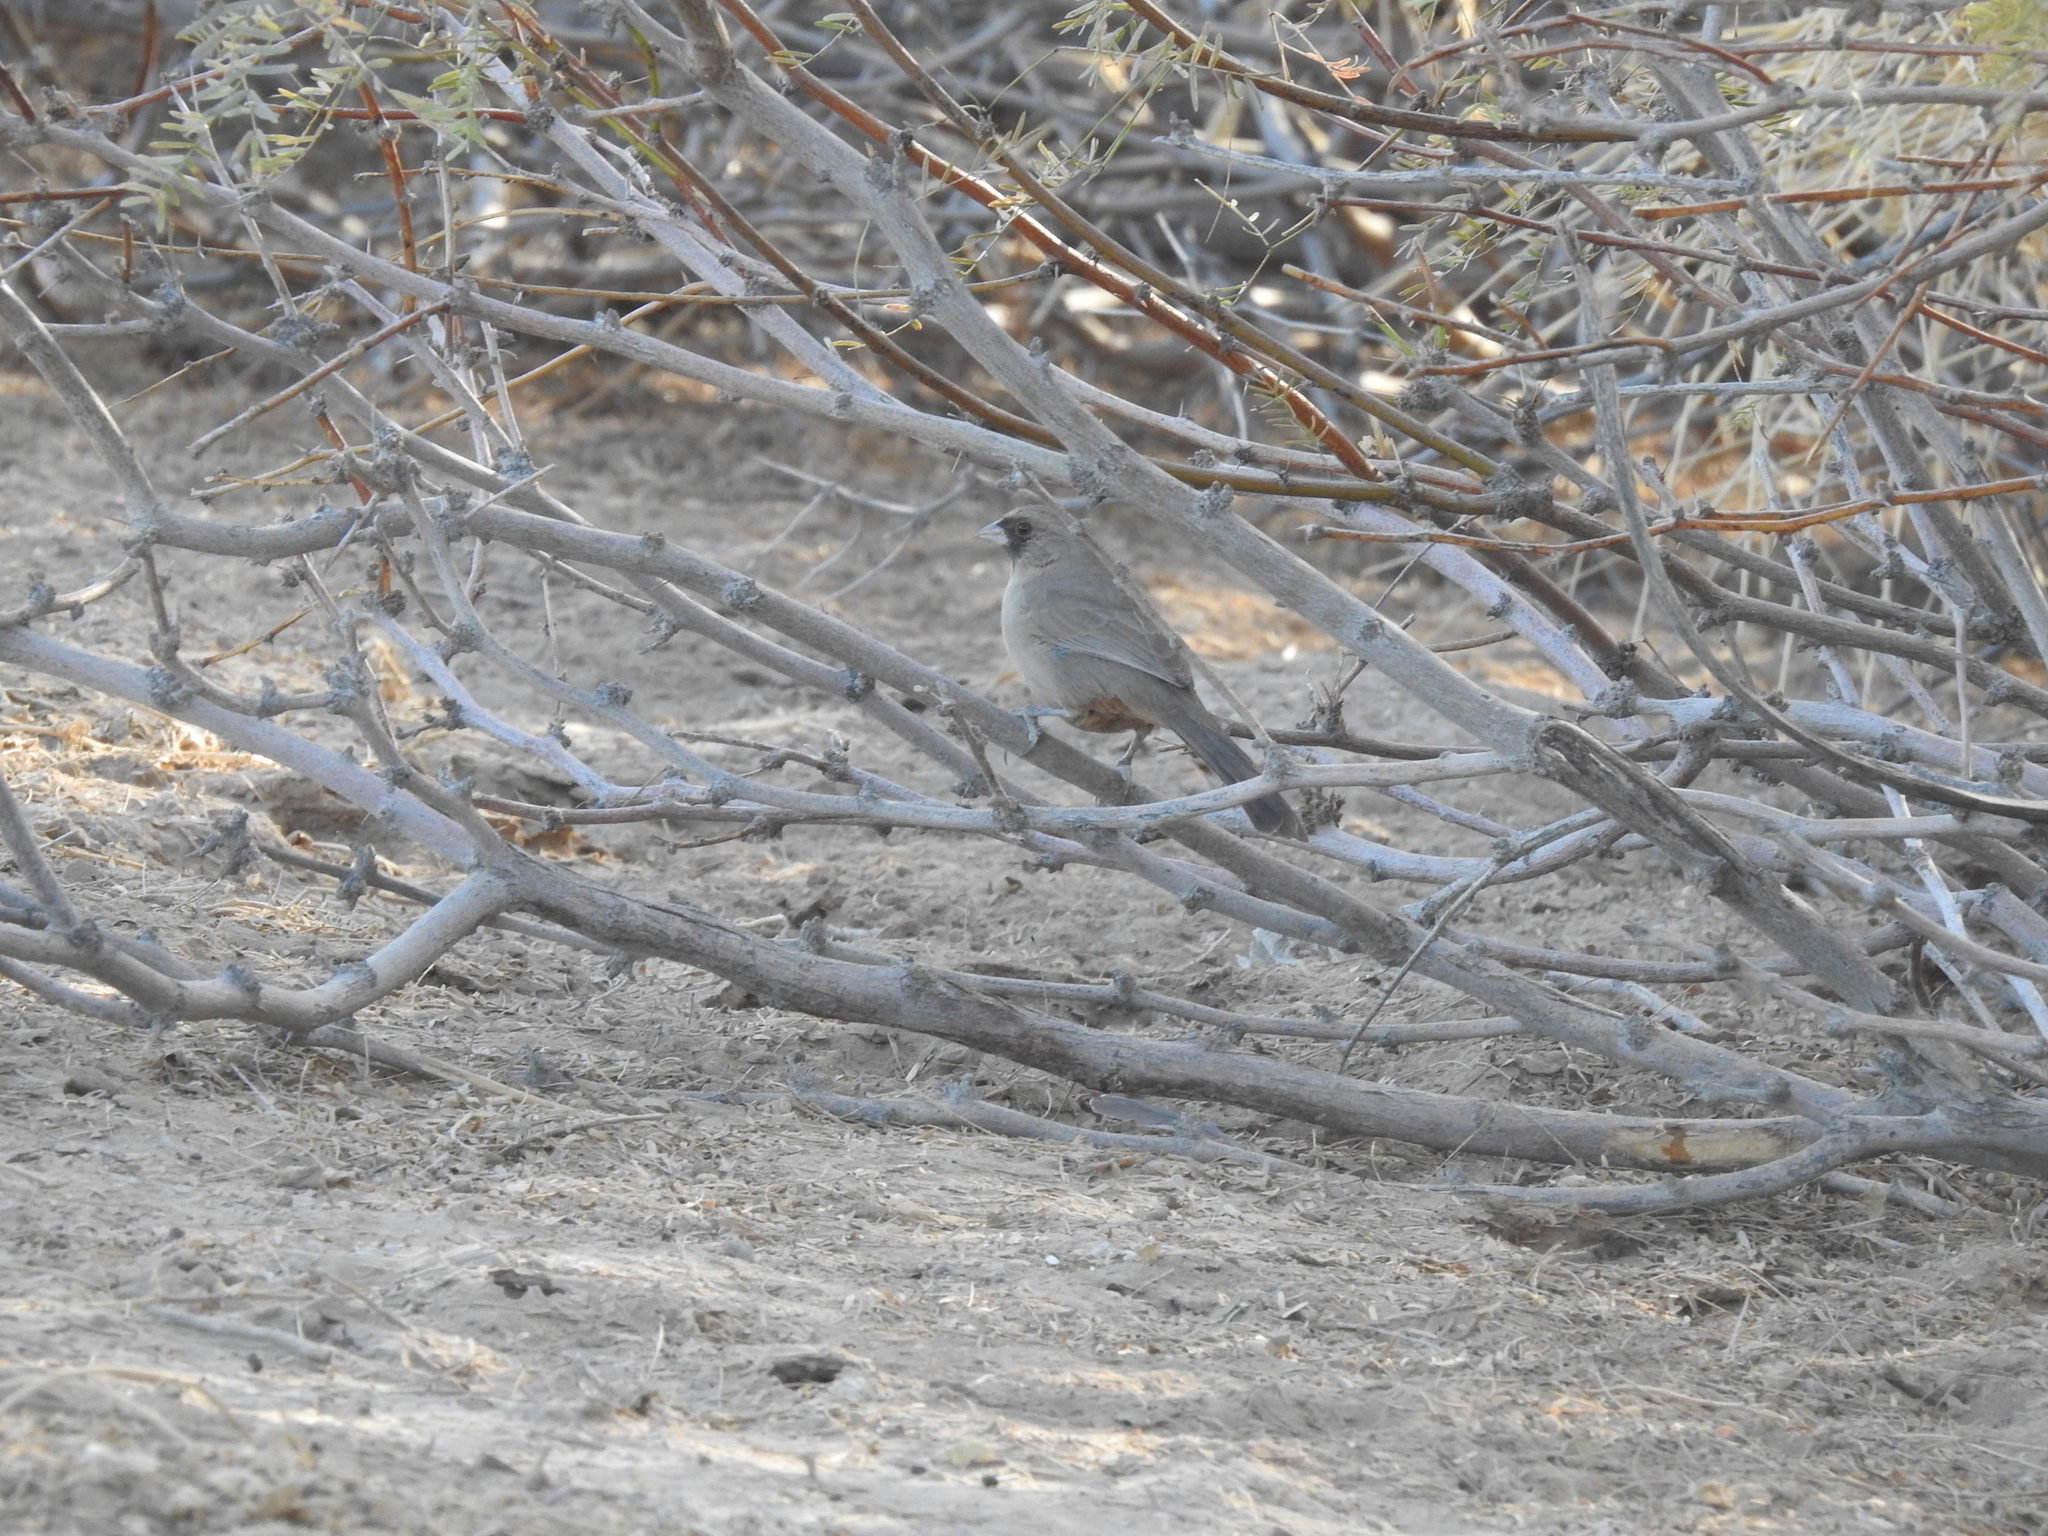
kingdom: Animalia
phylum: Chordata
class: Aves
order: Passeriformes
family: Passerellidae
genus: Melozone
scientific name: Melozone aberti
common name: Abert's towhee
